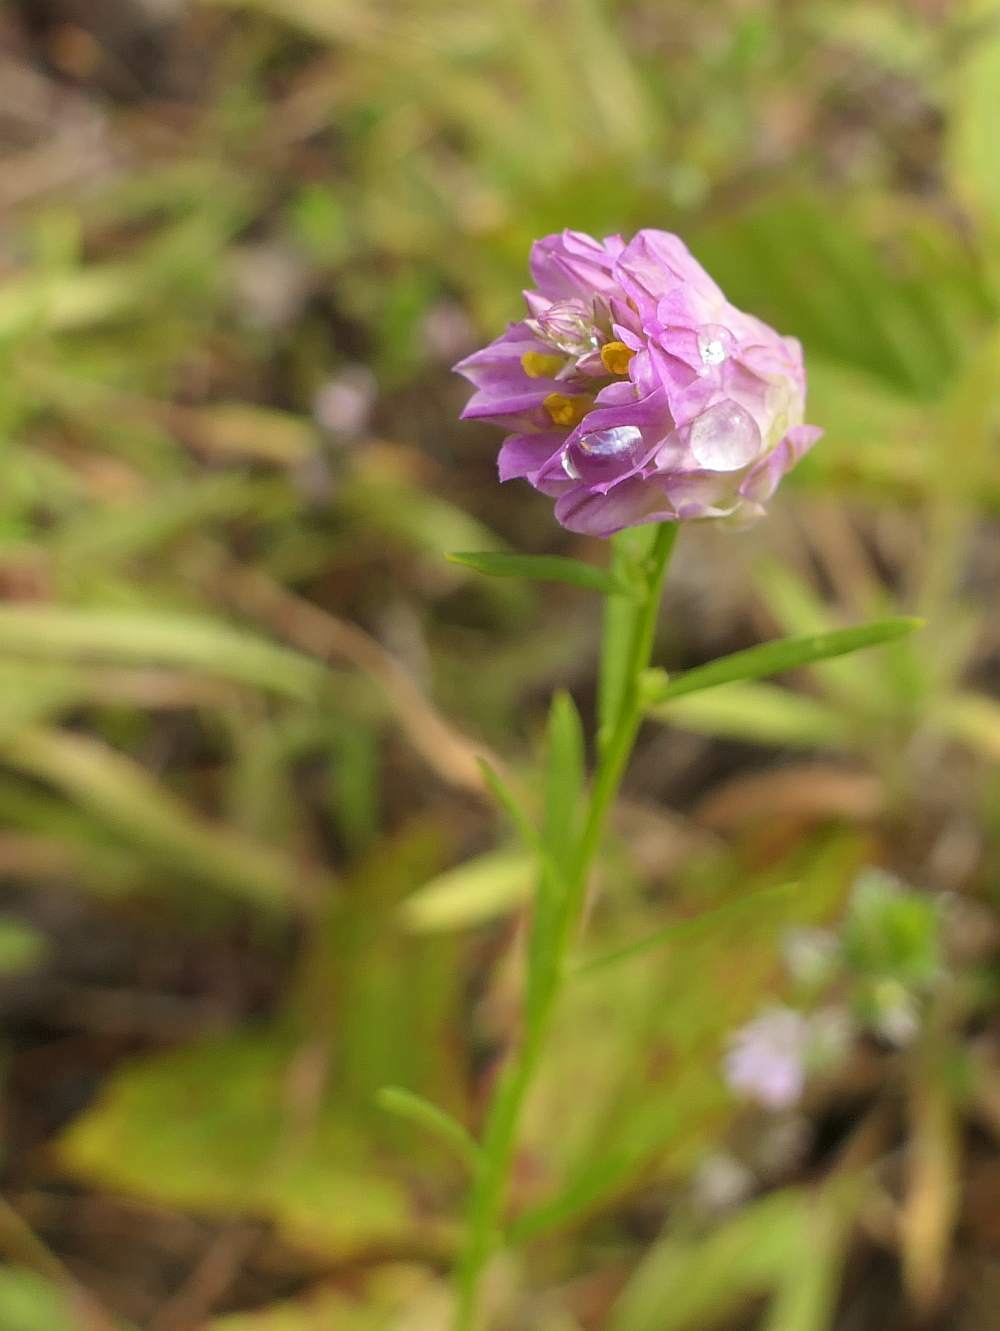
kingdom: Plantae
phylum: Tracheophyta
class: Magnoliopsida
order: Fabales
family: Polygalaceae
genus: Polygala
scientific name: Polygala sanguinea
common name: Blood milkwort
